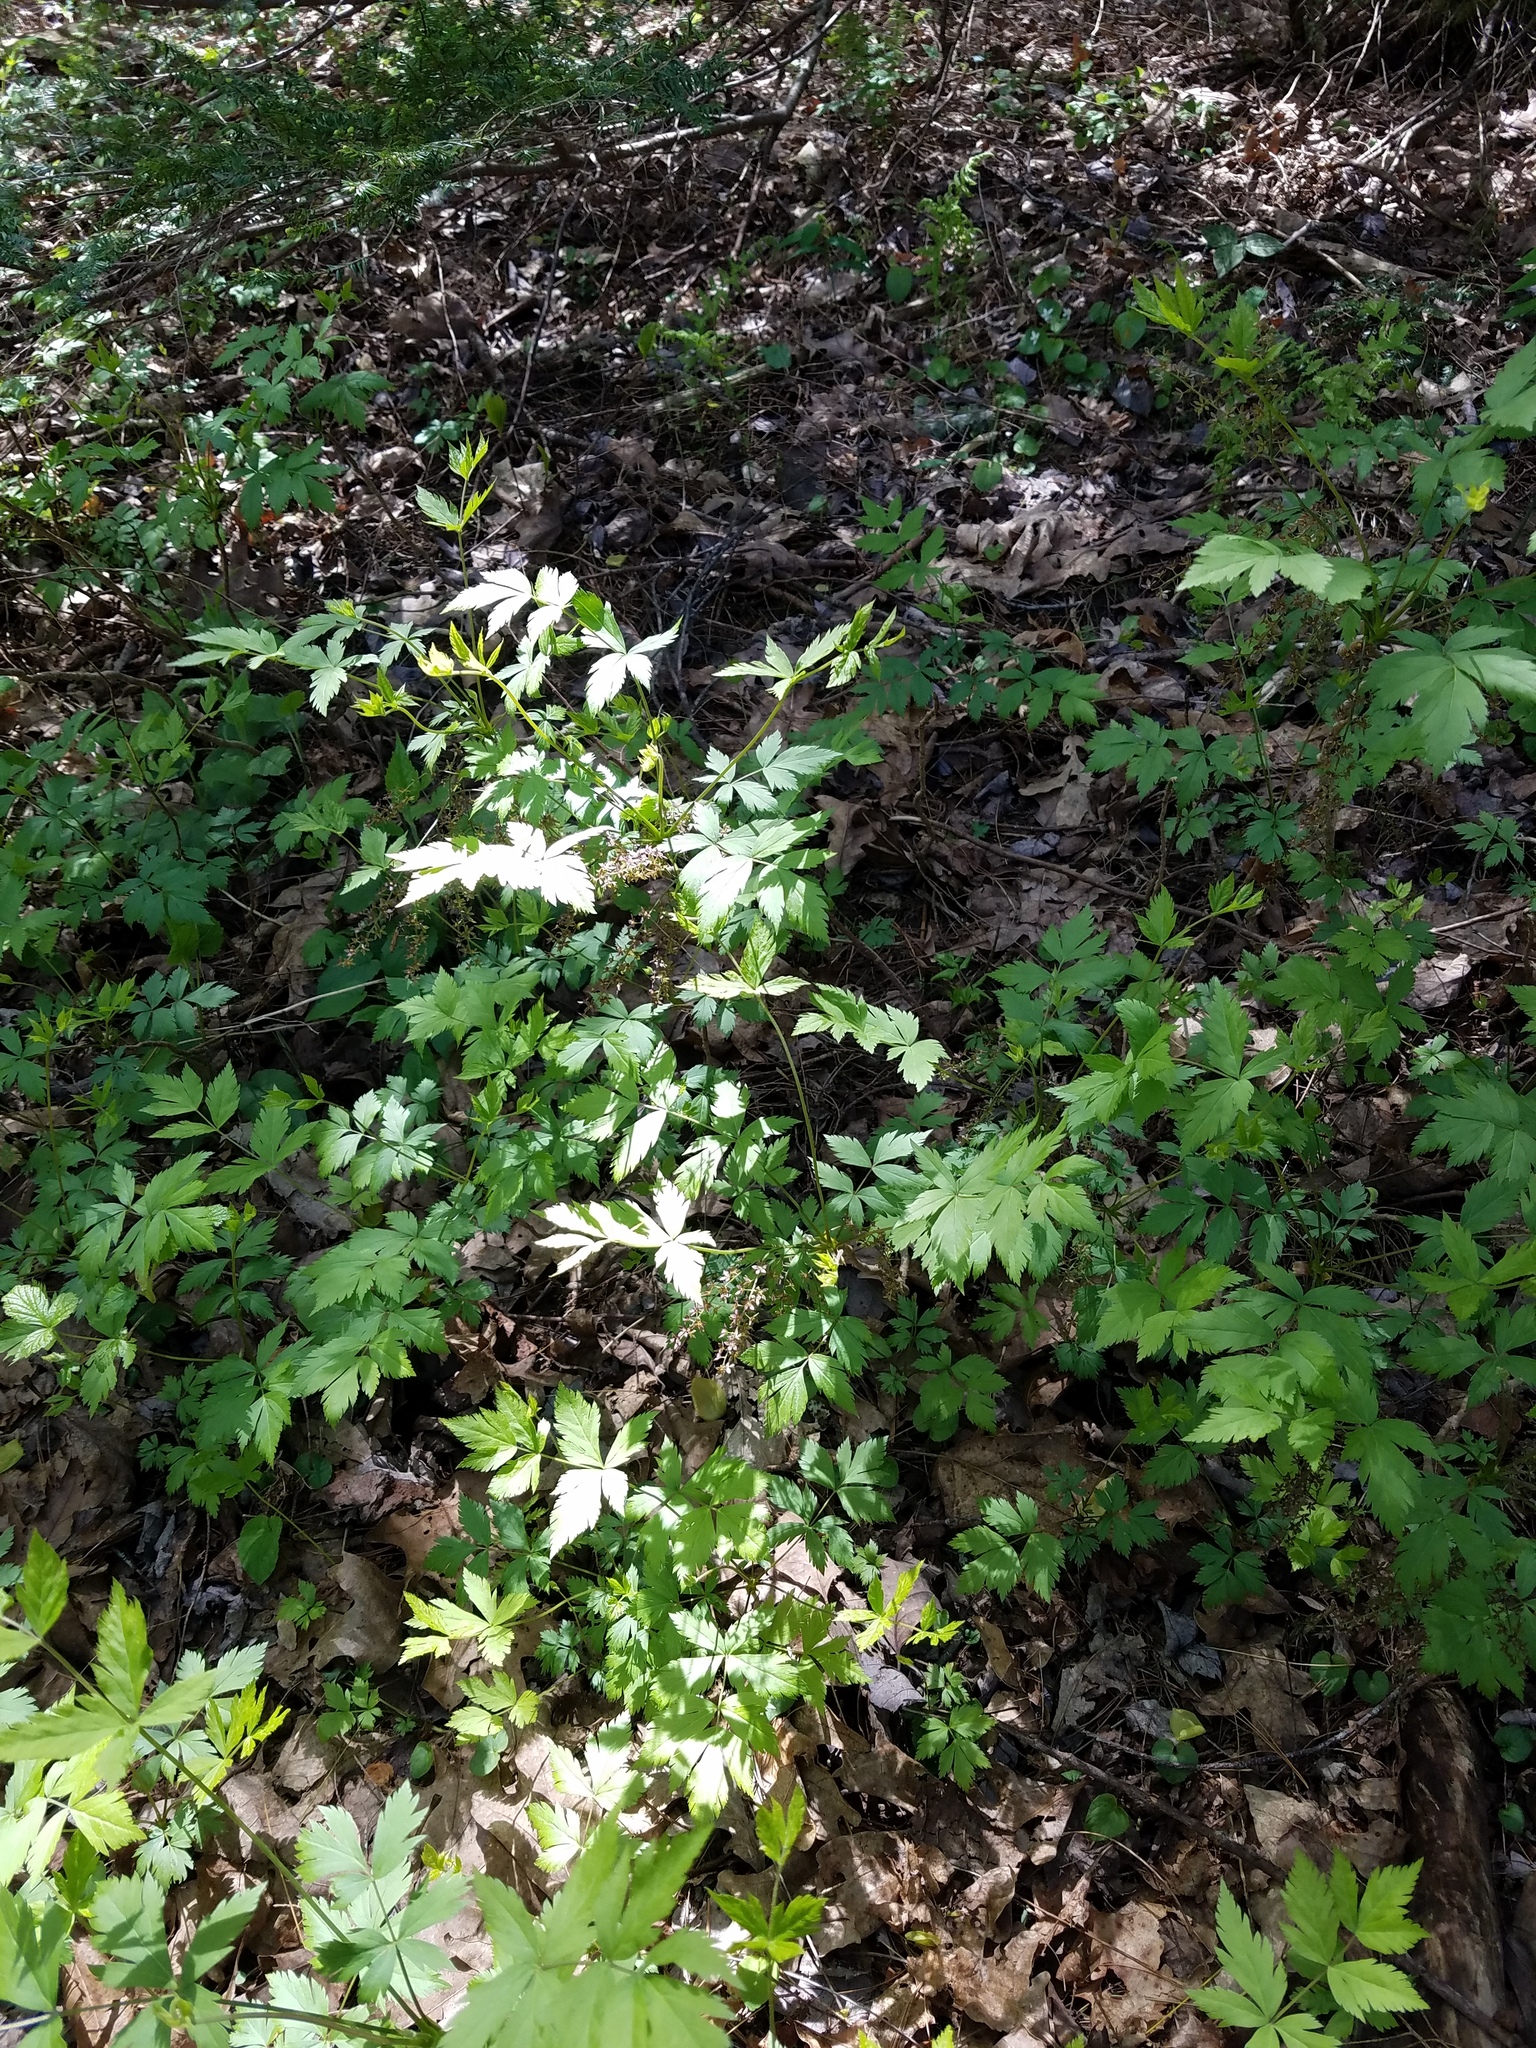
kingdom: Plantae
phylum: Tracheophyta
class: Magnoliopsida
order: Ranunculales
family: Ranunculaceae
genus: Xanthorhiza
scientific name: Xanthorhiza simplicissima
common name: Yellowroot
